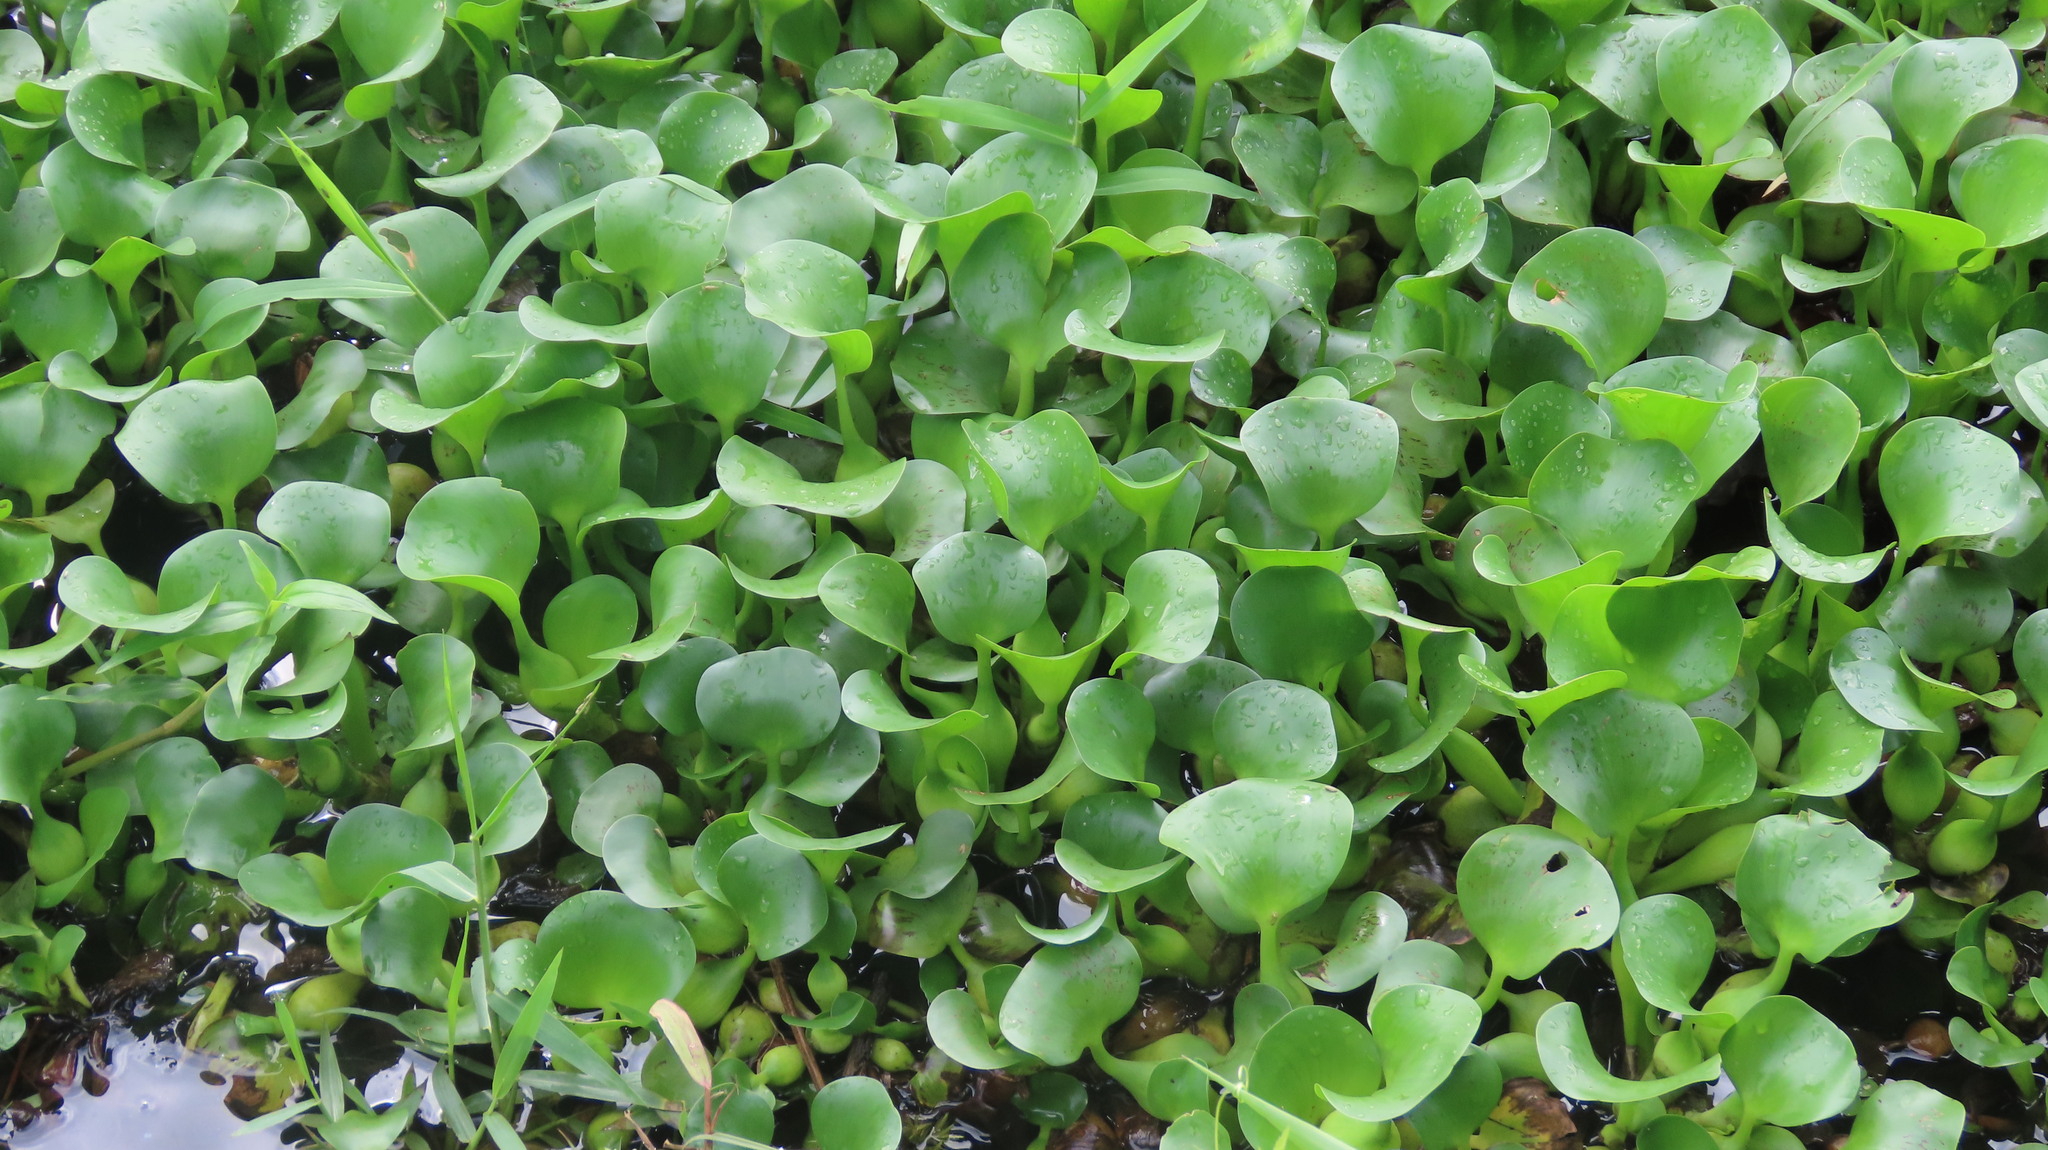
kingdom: Plantae
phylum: Tracheophyta
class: Liliopsida
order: Commelinales
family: Pontederiaceae
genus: Pontederia
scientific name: Pontederia crassipes
